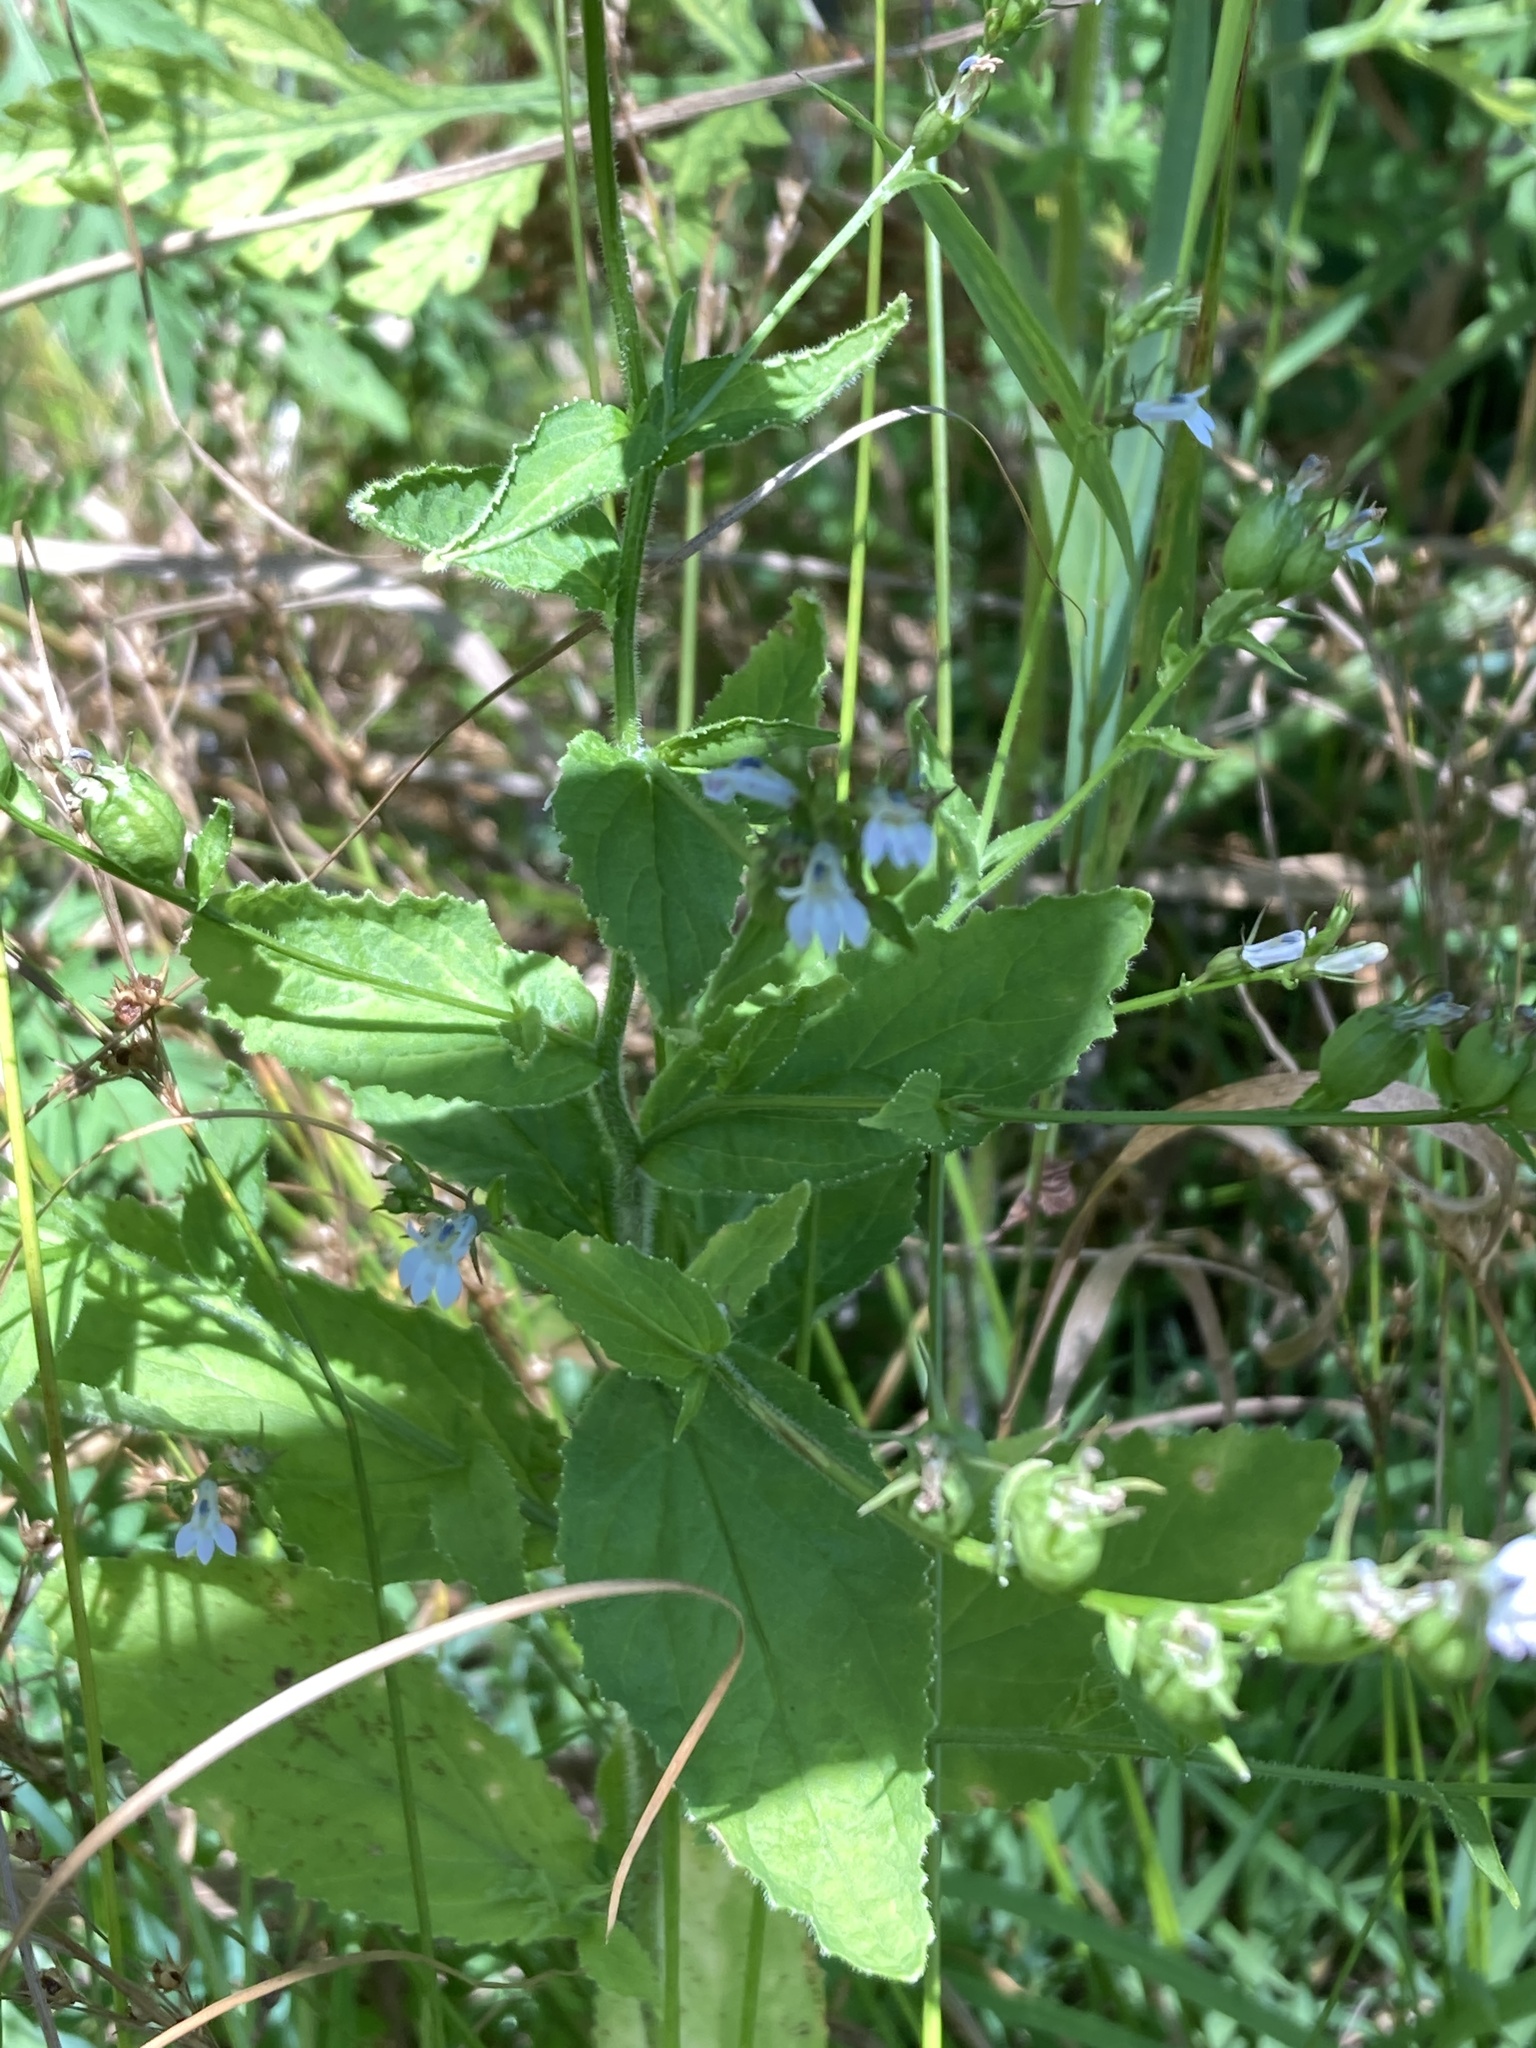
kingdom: Plantae
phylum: Tracheophyta
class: Magnoliopsida
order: Asterales
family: Campanulaceae
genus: Lobelia
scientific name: Lobelia inflata
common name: Indian tobacco
